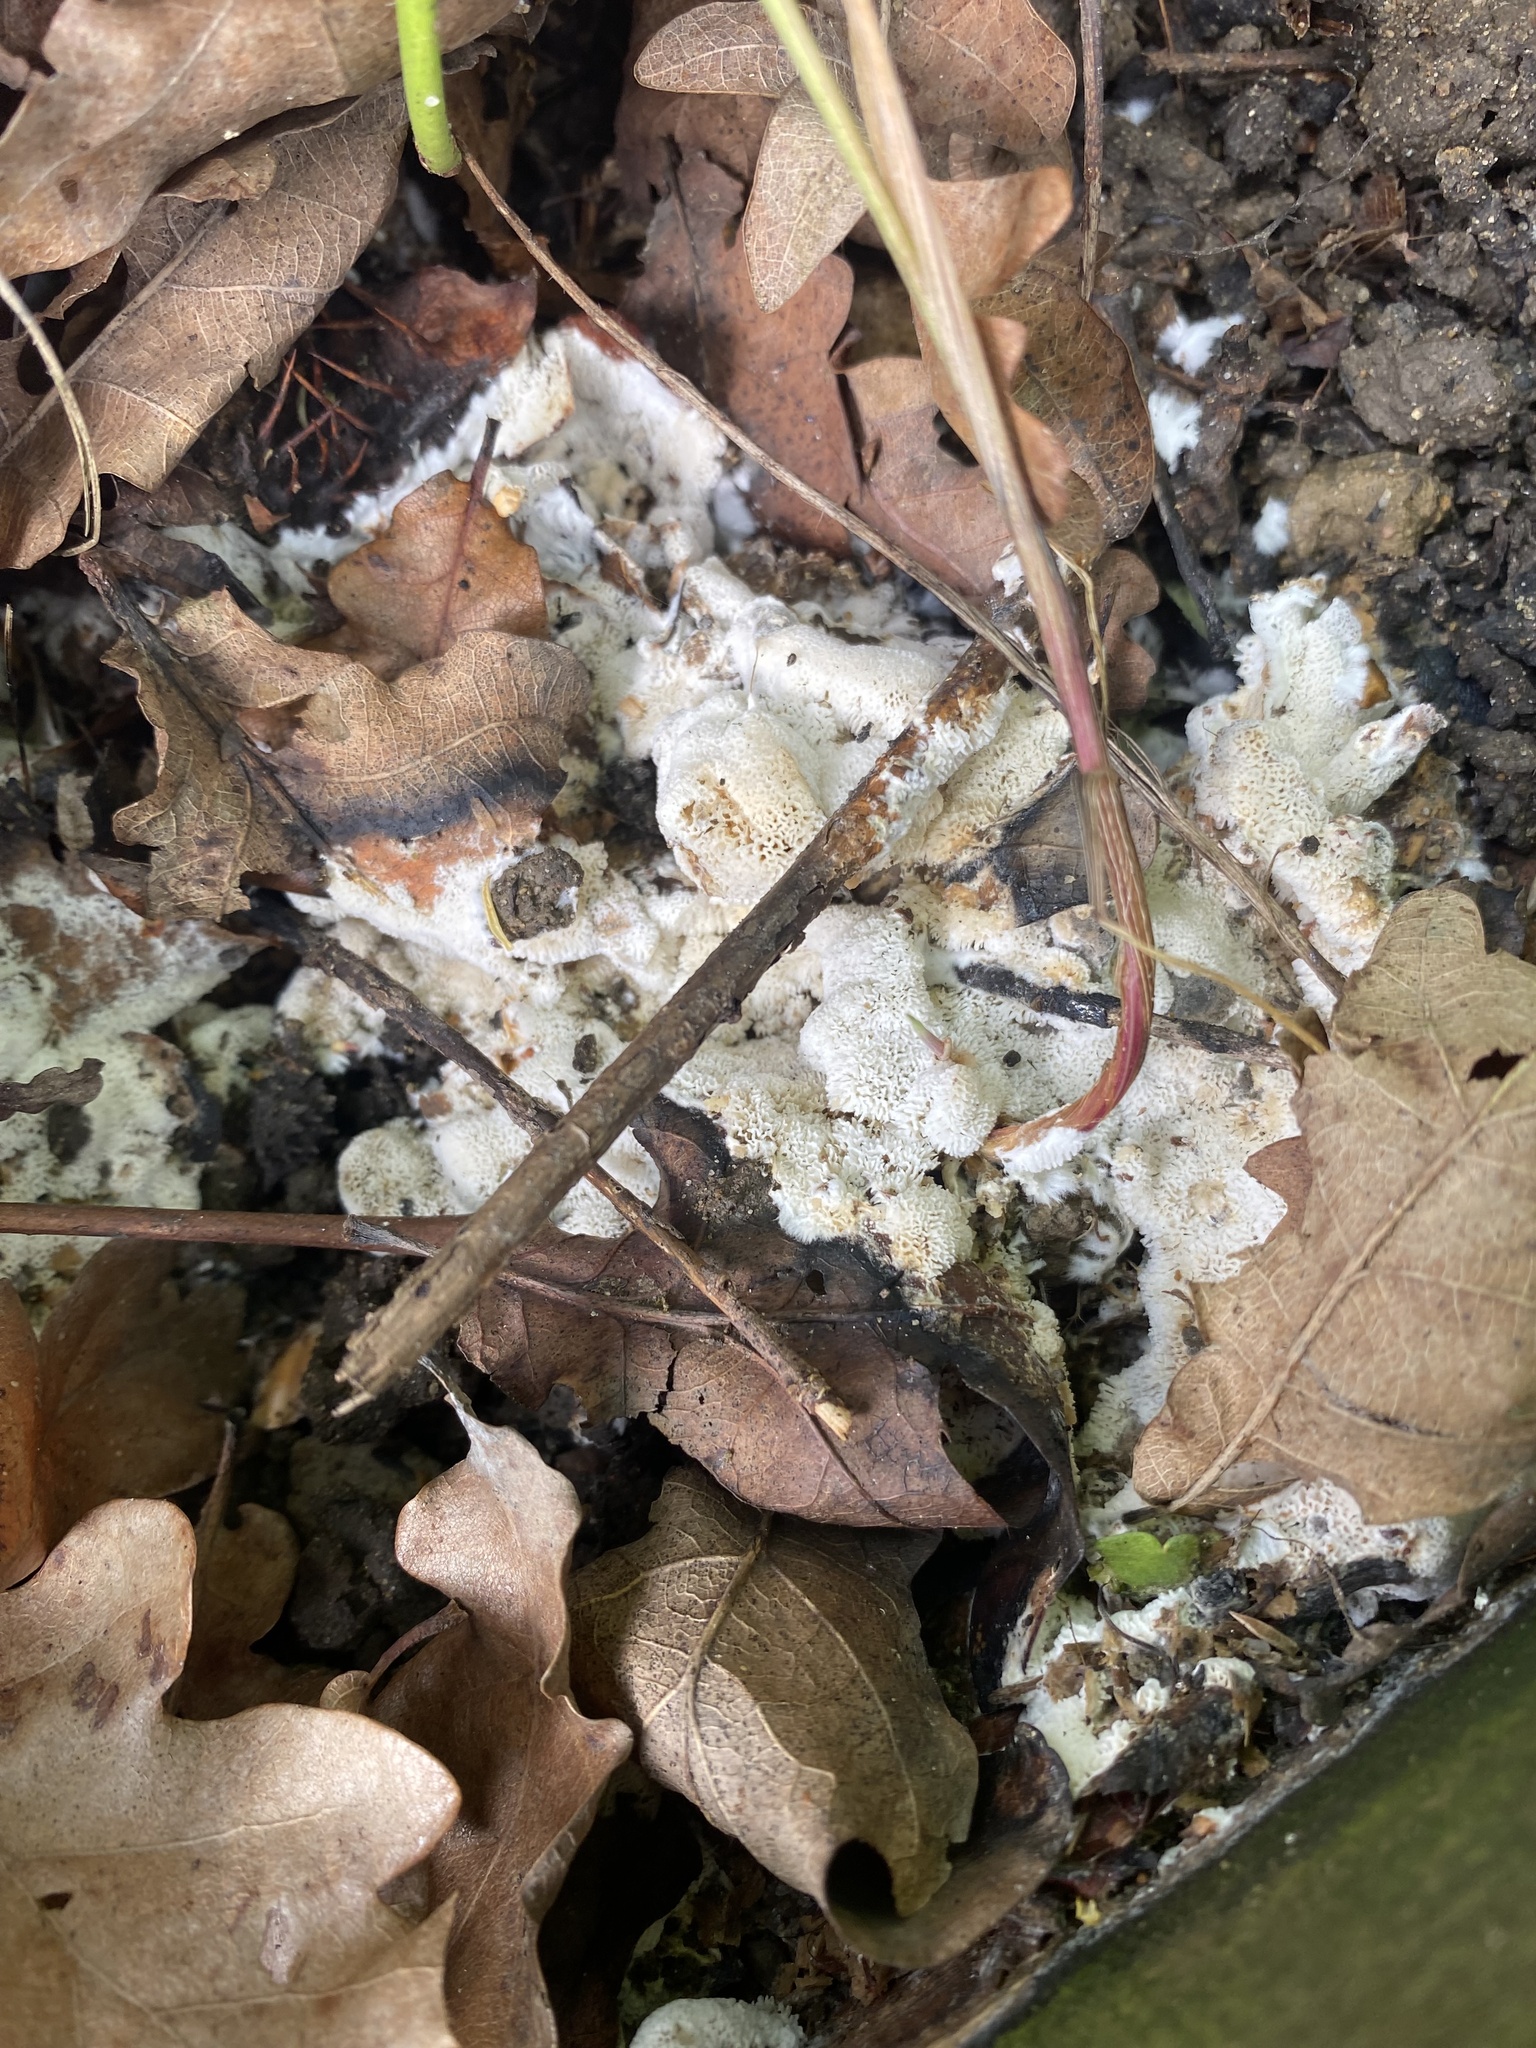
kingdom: Protozoa
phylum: Mycetozoa
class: Protosteliomycetes
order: Ceratiomyxales
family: Ceratiomyxaceae
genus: Ceratiomyxa
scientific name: Ceratiomyxa fruticulosa
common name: Honeycomb coral slime mold
